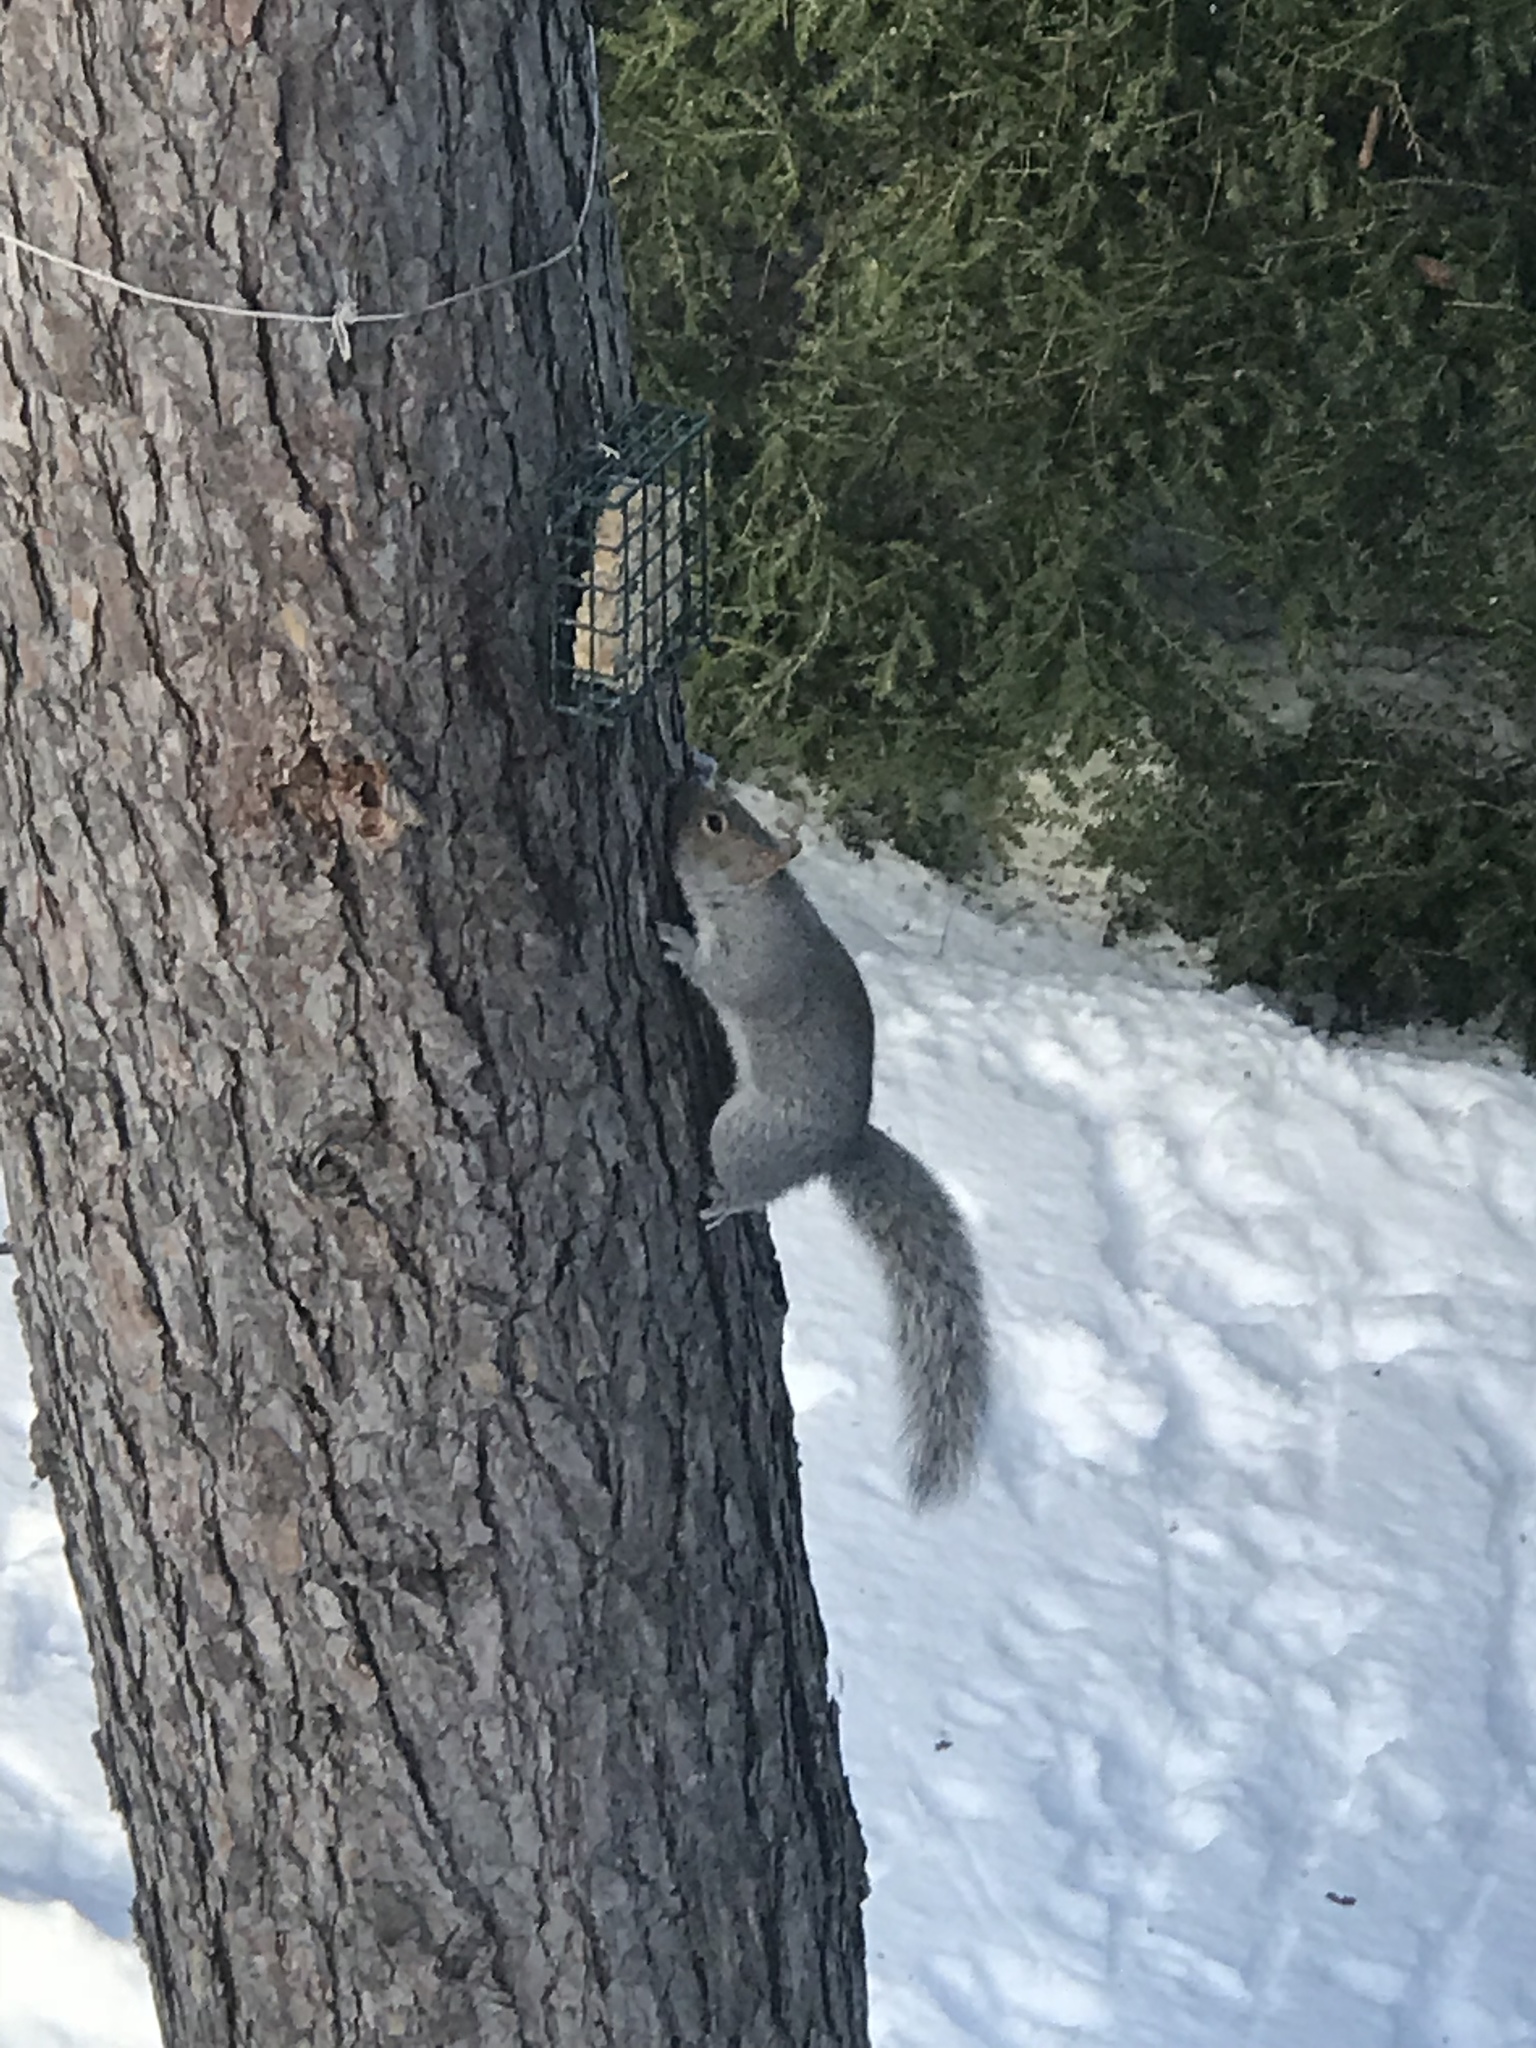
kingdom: Animalia
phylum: Chordata
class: Mammalia
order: Rodentia
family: Sciuridae
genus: Sciurus
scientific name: Sciurus carolinensis
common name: Eastern gray squirrel
